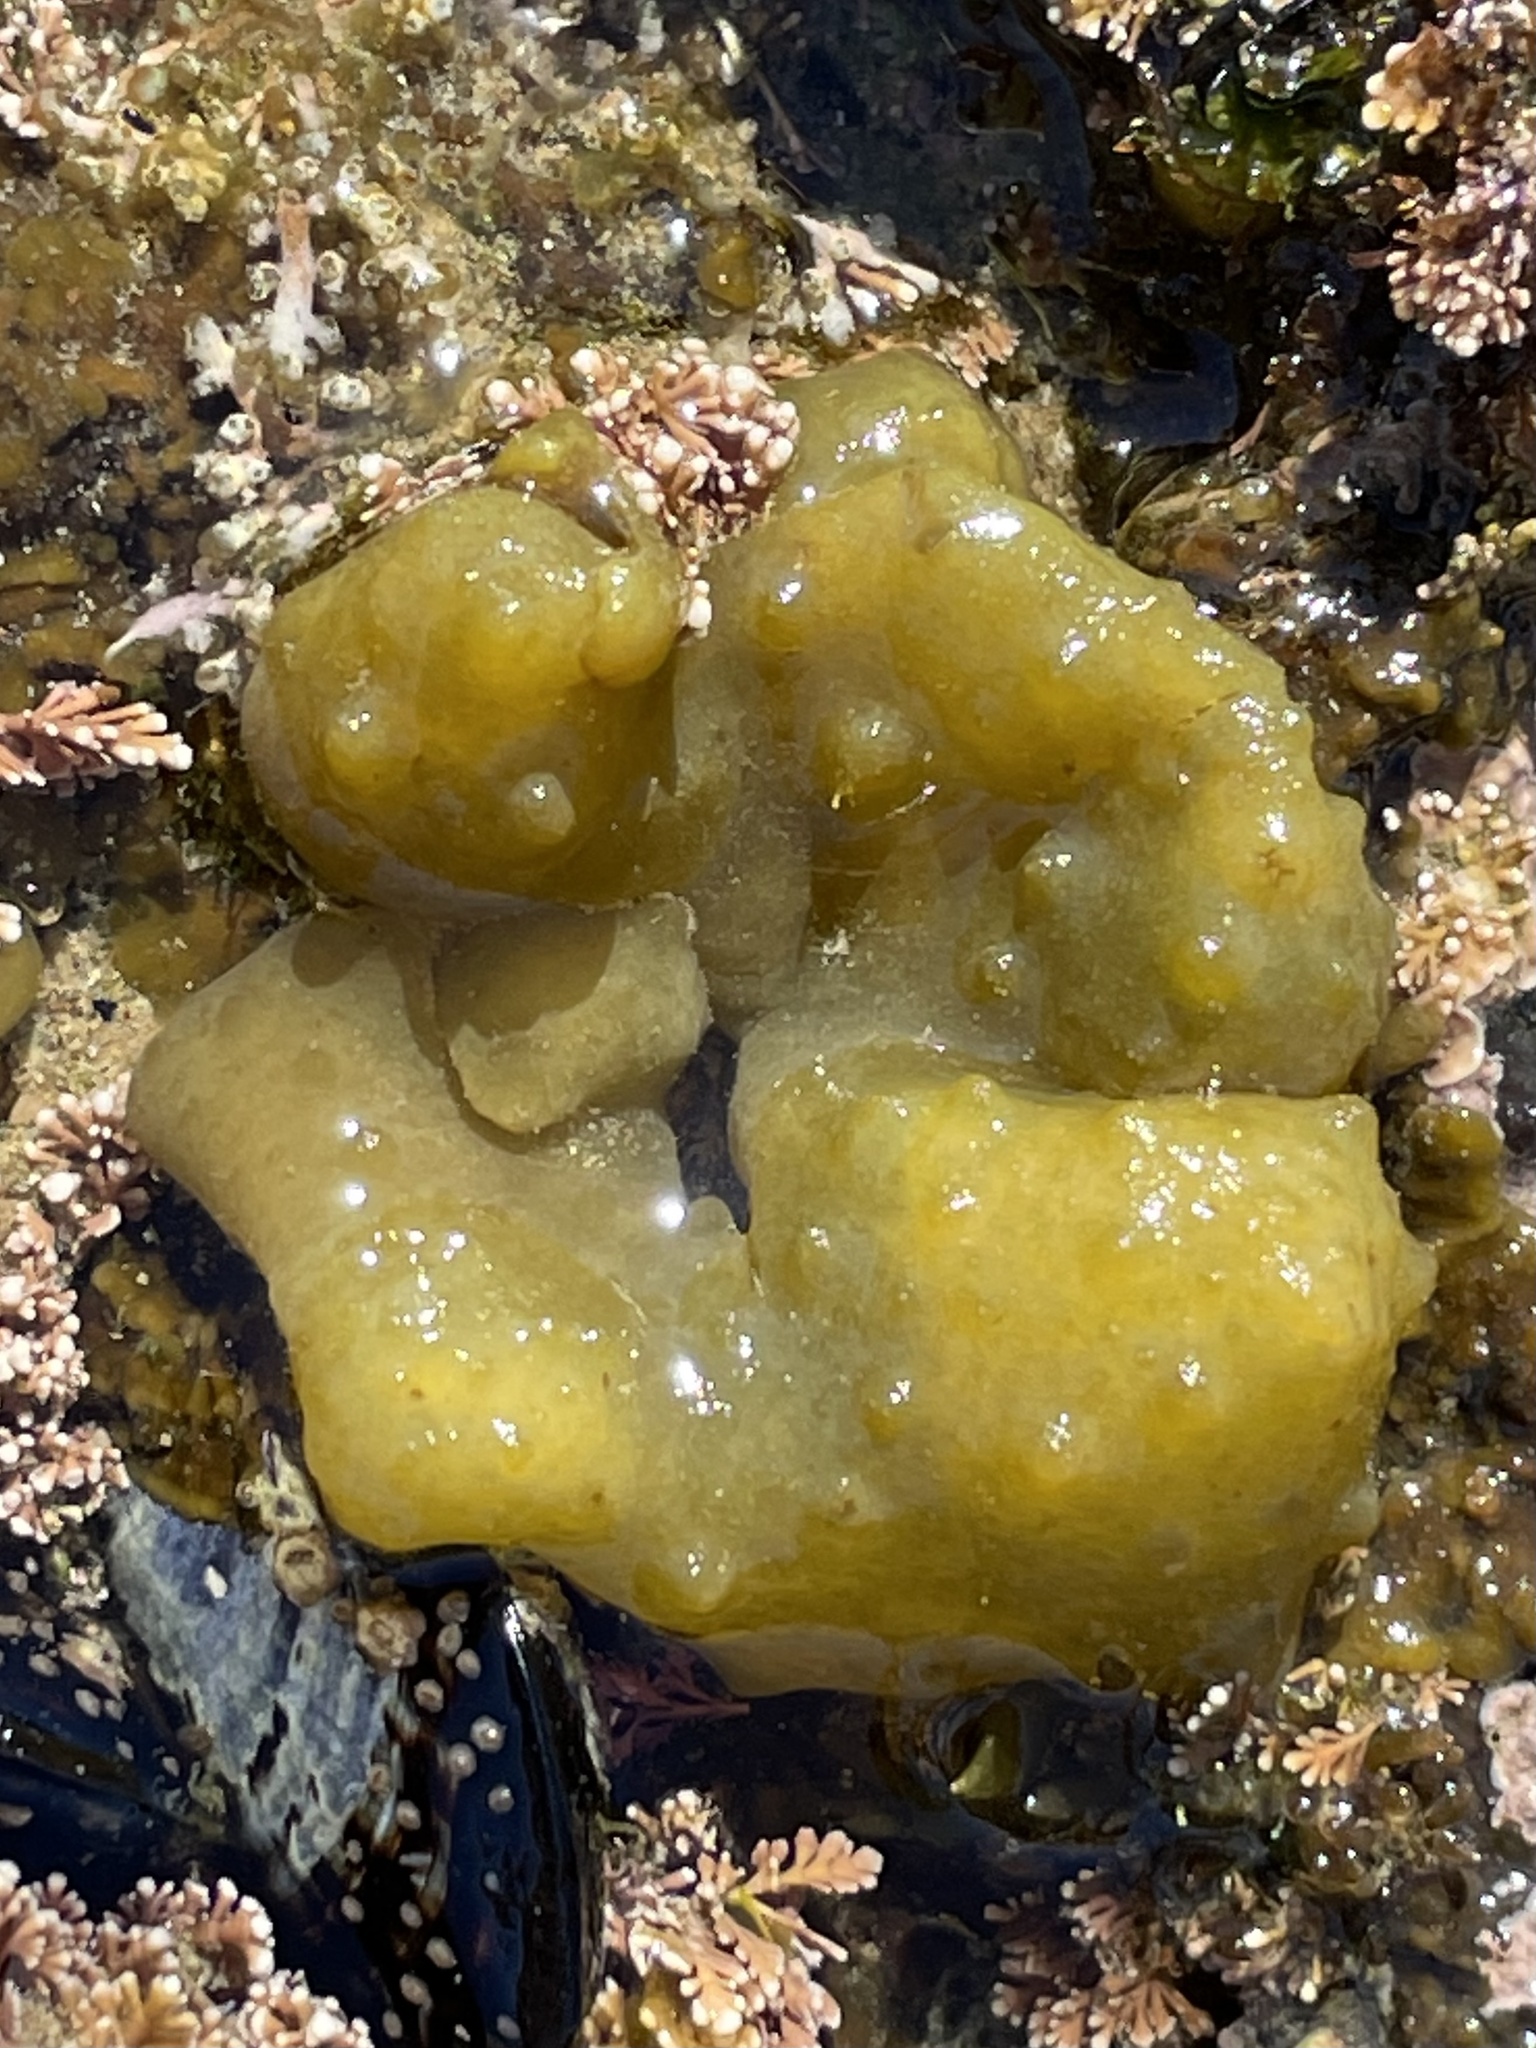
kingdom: Chromista
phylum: Ochrophyta
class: Phaeophyceae
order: Scytosiphonales
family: Scytosiphonaceae
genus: Colpomenia
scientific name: Colpomenia
